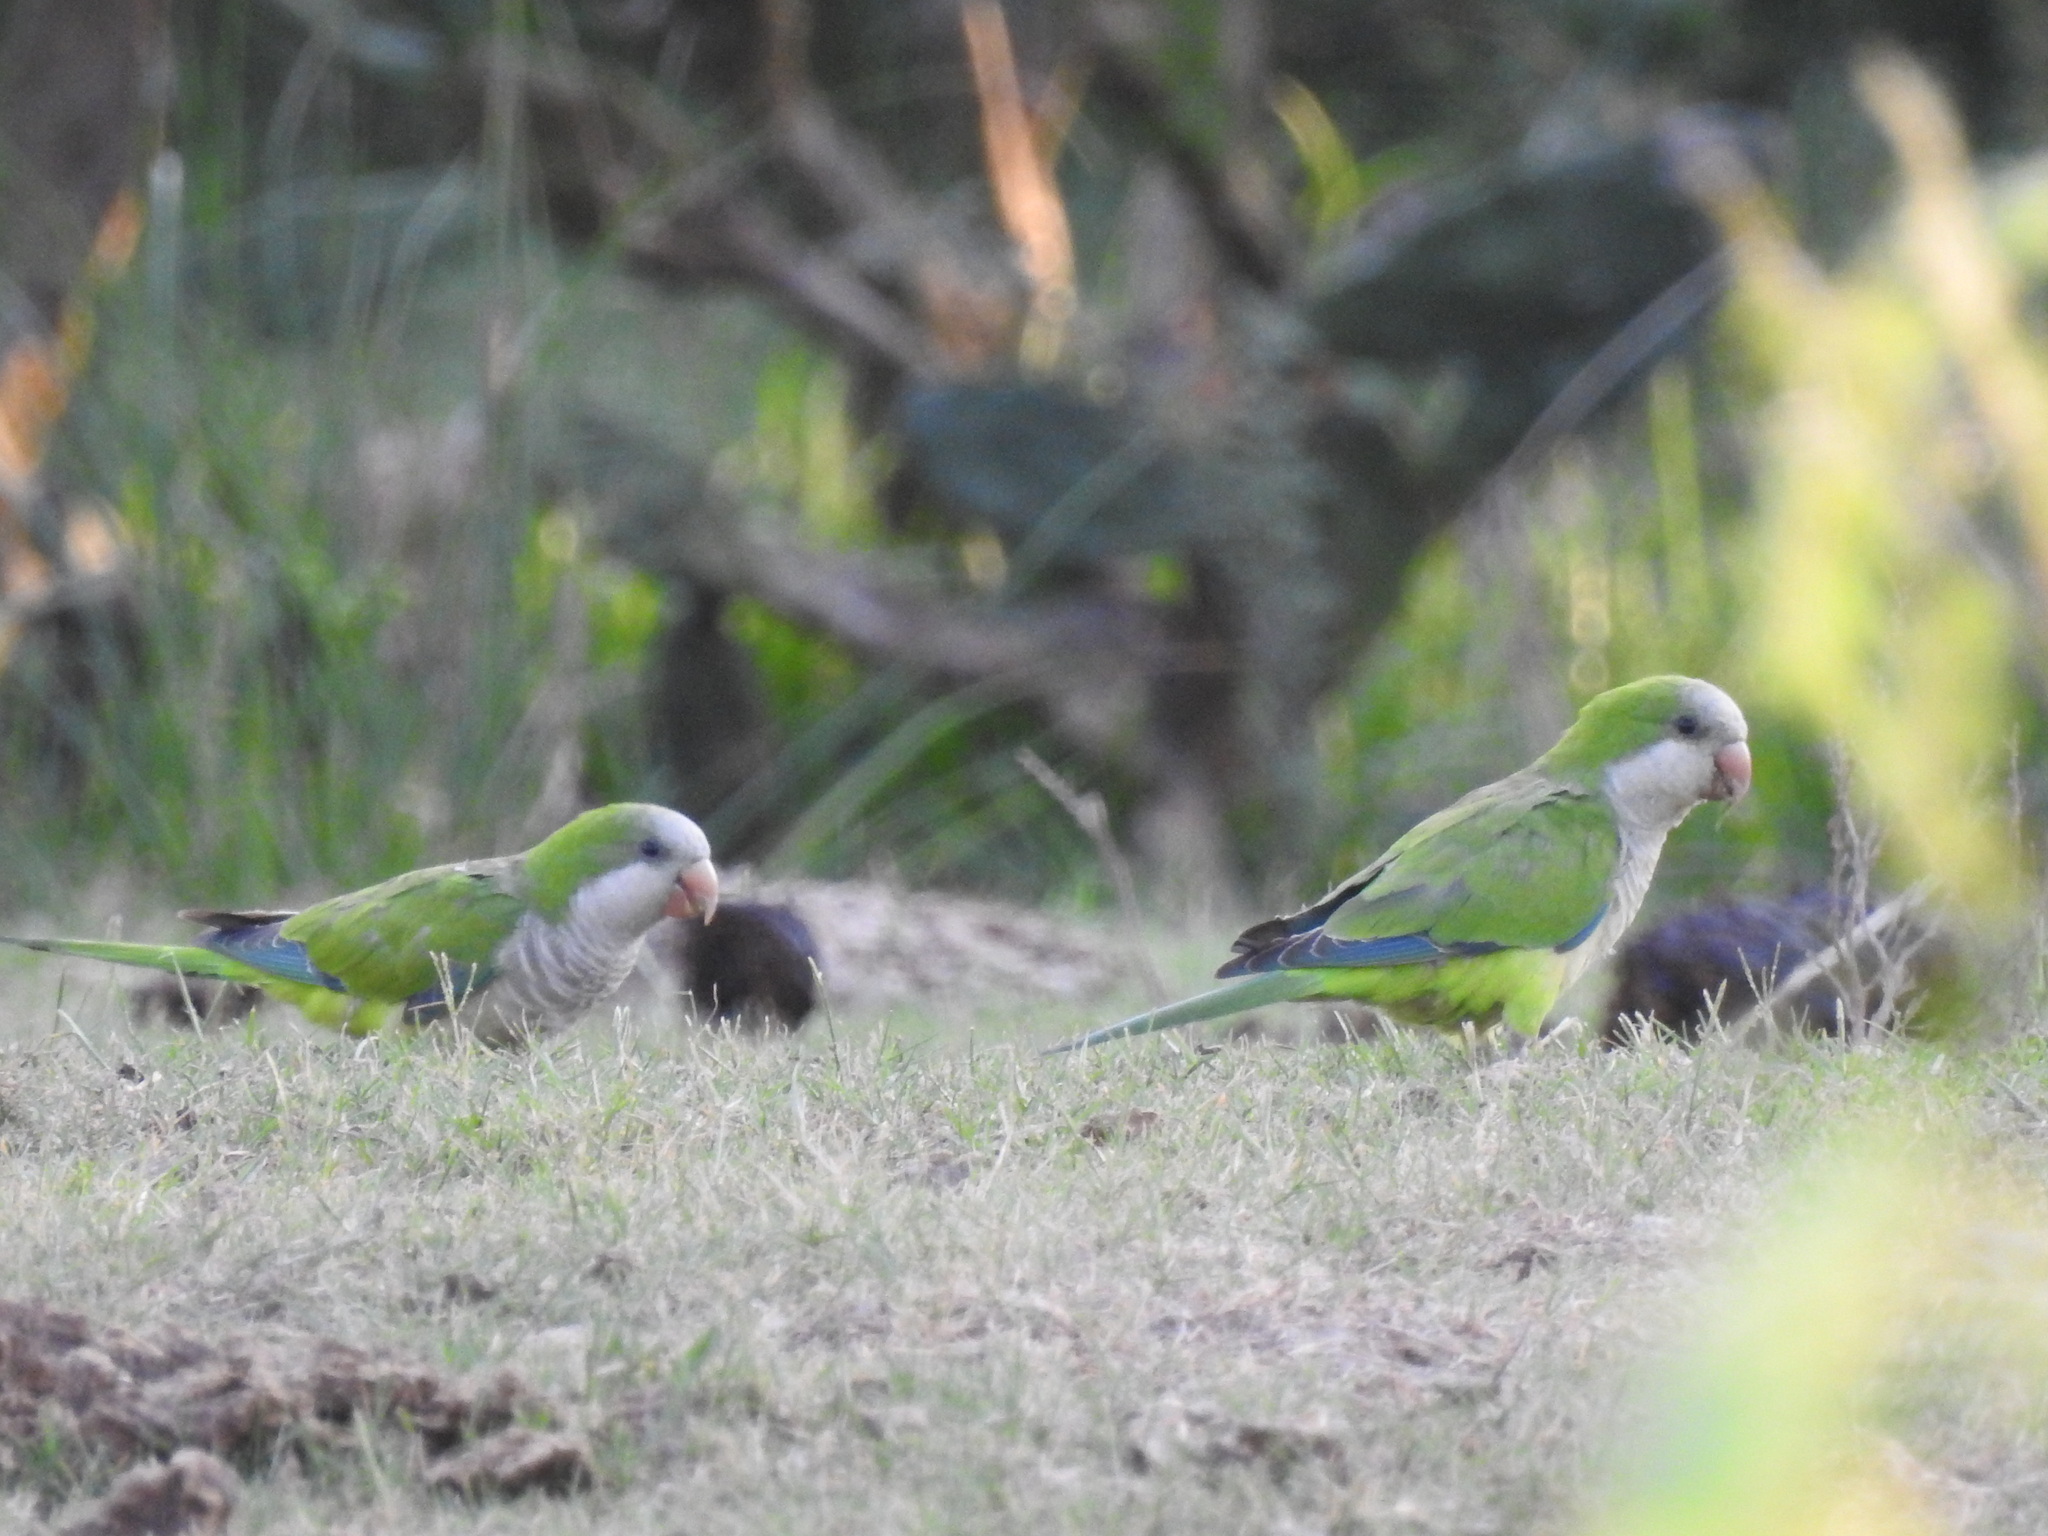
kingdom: Animalia
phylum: Chordata
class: Aves
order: Psittaciformes
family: Psittacidae
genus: Myiopsitta
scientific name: Myiopsitta monachus
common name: Monk parakeet
